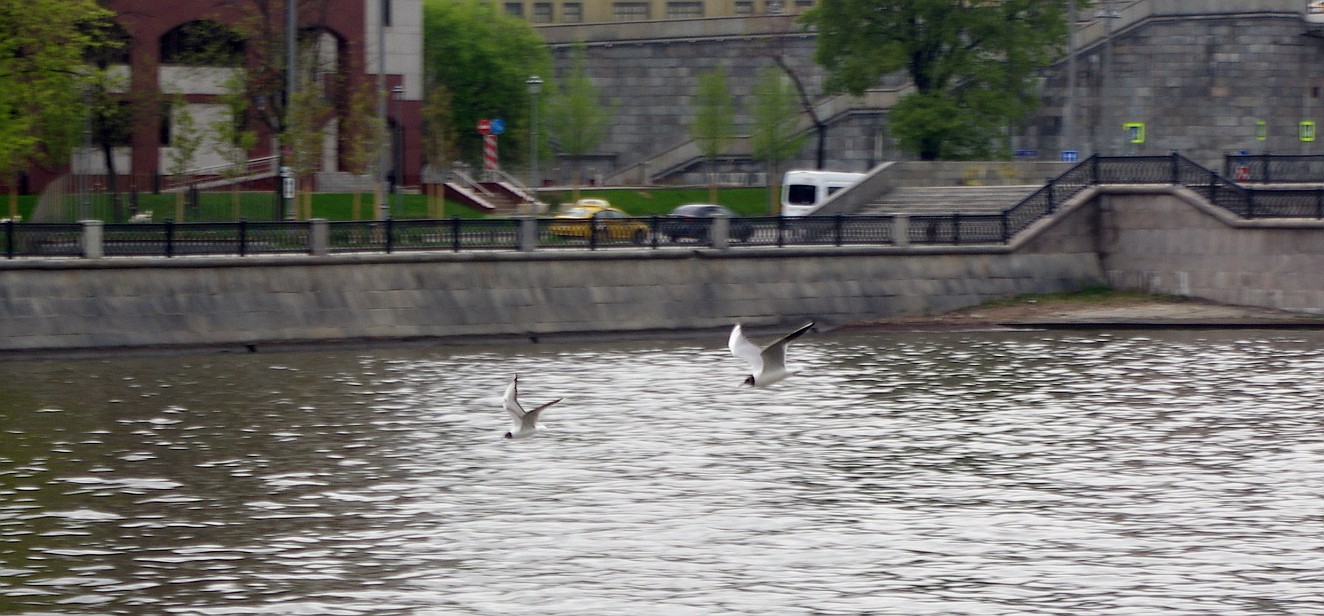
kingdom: Animalia
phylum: Chordata
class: Aves
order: Charadriiformes
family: Laridae
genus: Chroicocephalus
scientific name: Chroicocephalus ridibundus
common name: Black-headed gull
